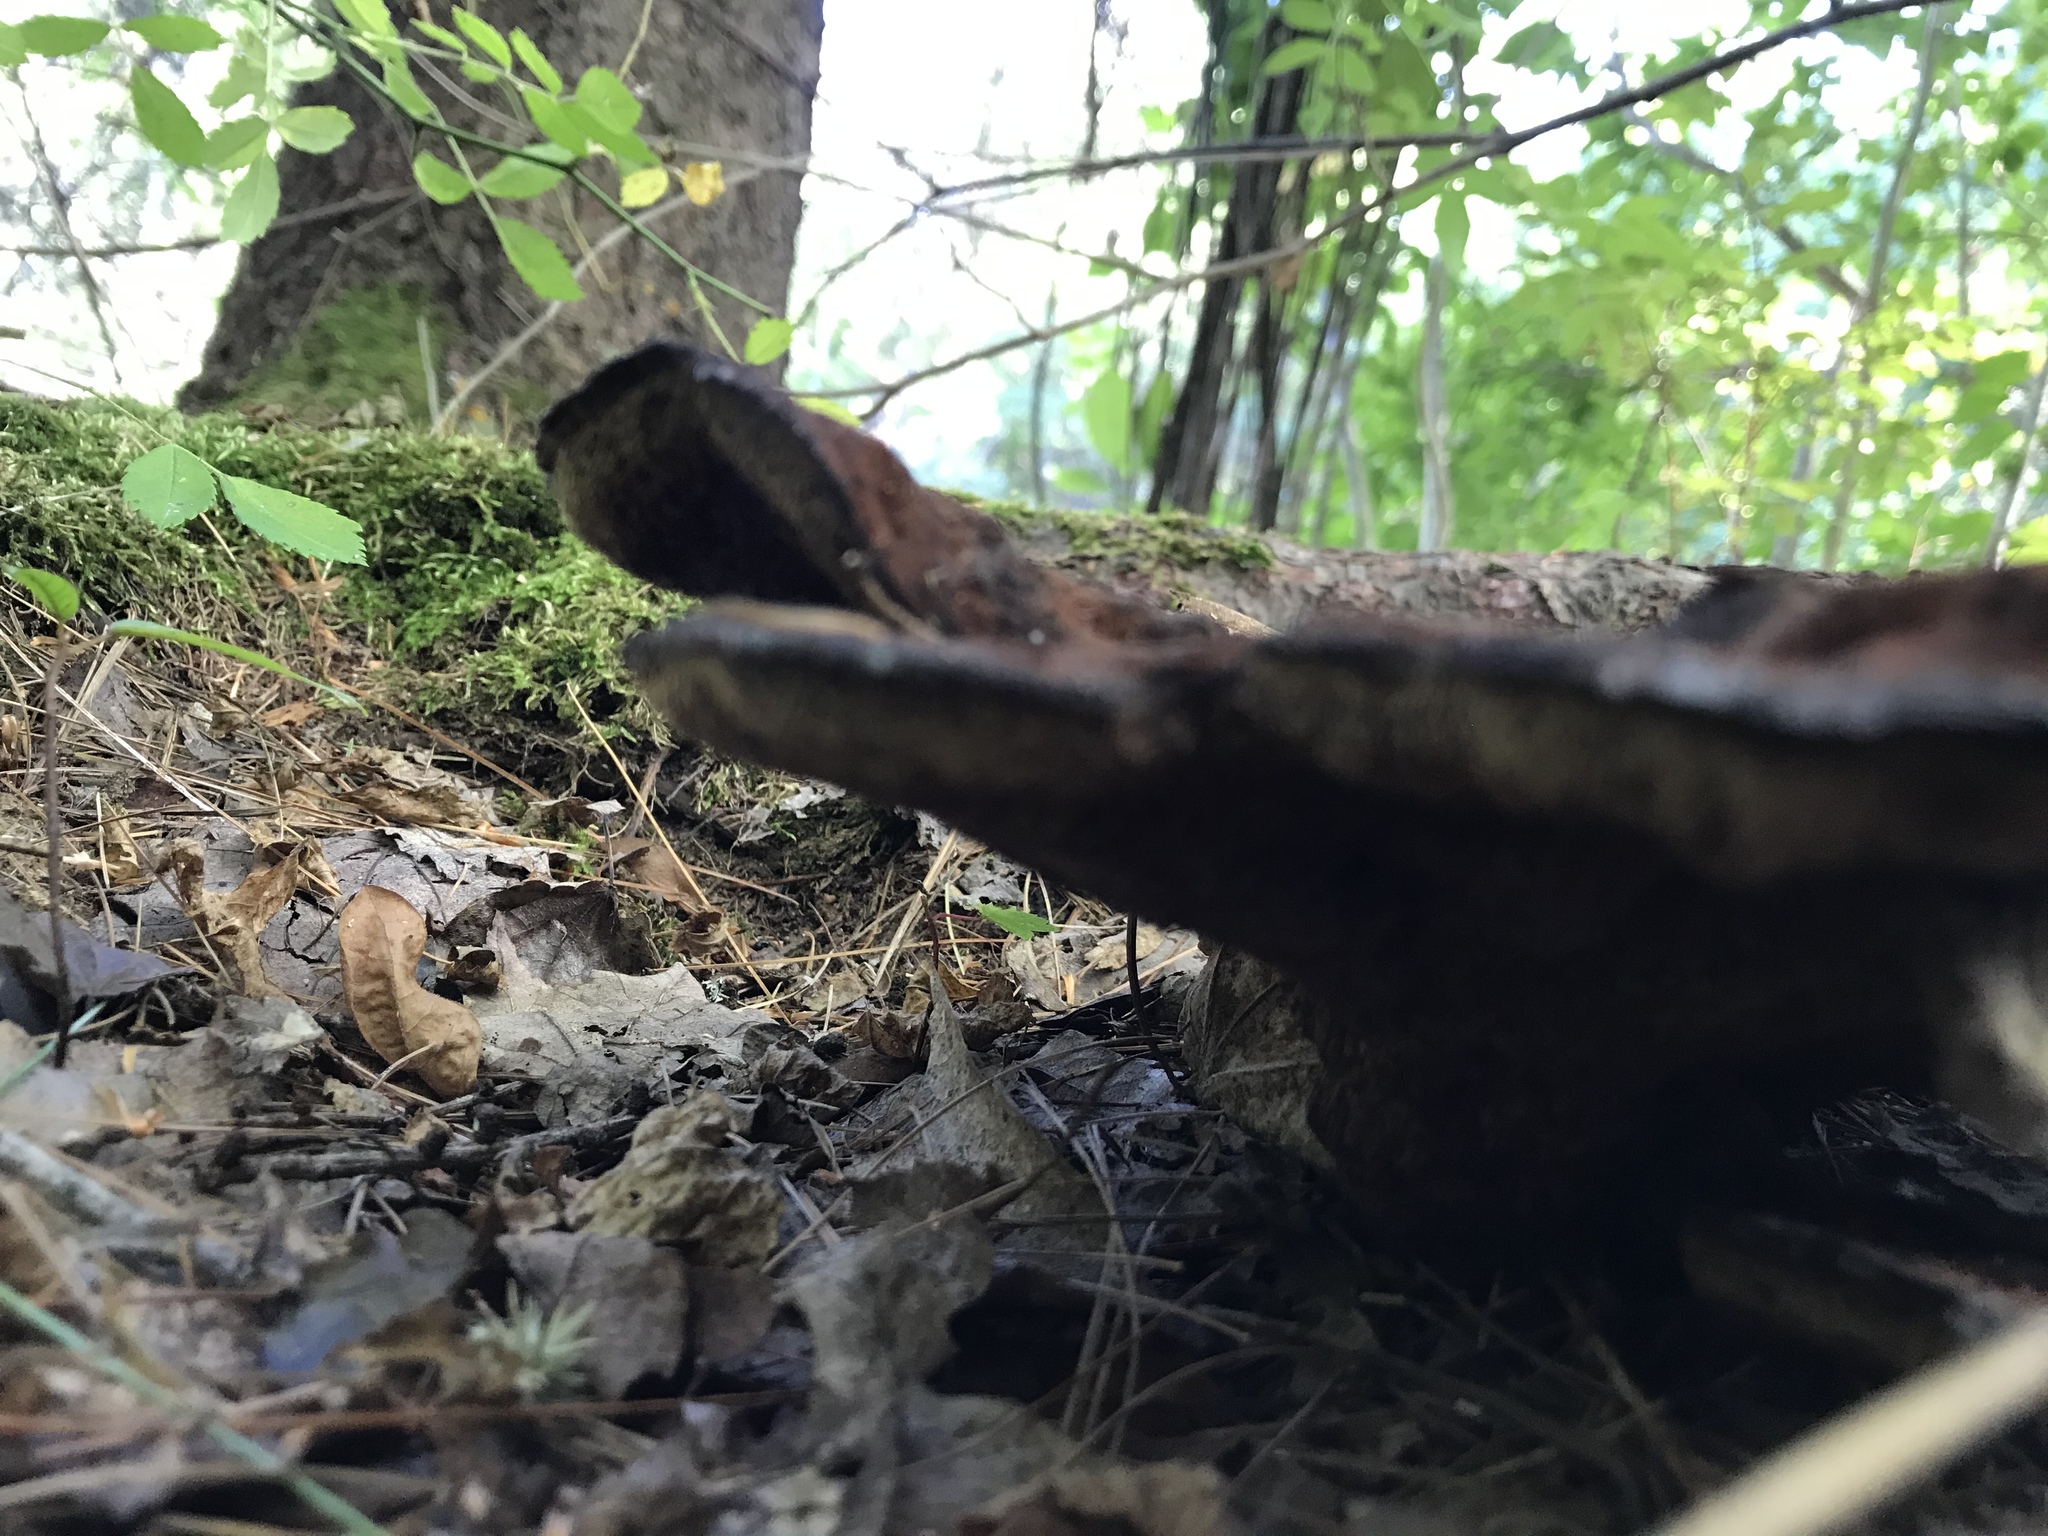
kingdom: Fungi
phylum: Basidiomycota
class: Agaricomycetes
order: Polyporales
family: Laetiporaceae
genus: Phaeolus
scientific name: Phaeolus schweinitzii
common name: Dyer's mazegill
